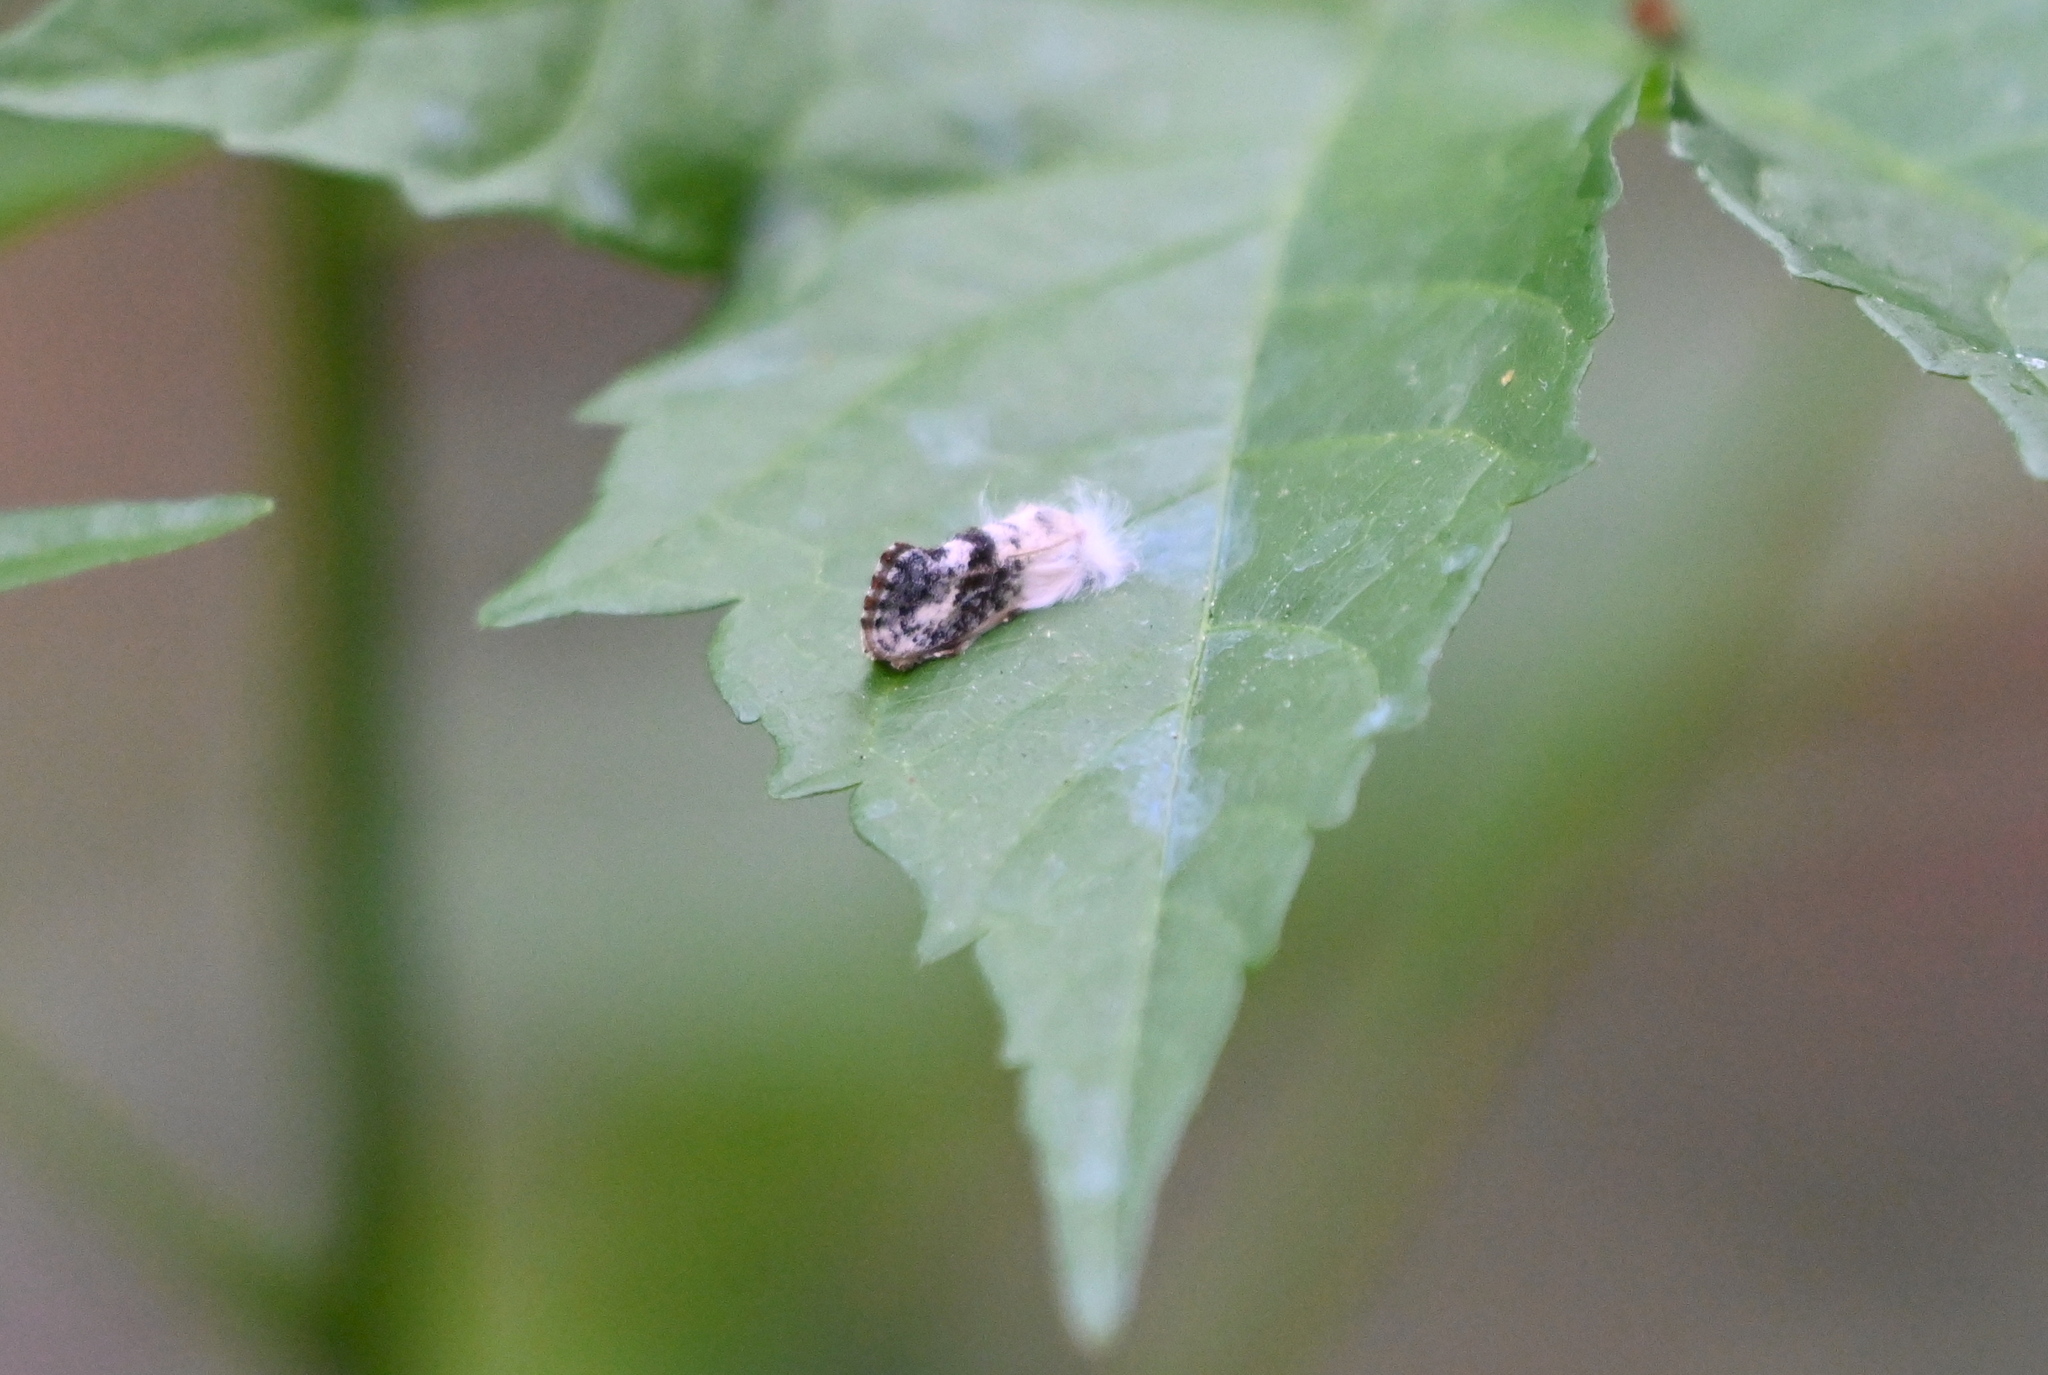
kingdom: Animalia
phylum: Arthropoda
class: Insecta
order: Lepidoptera
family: Tineidae
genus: Acrolophus
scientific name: Acrolophus mycetophagus
